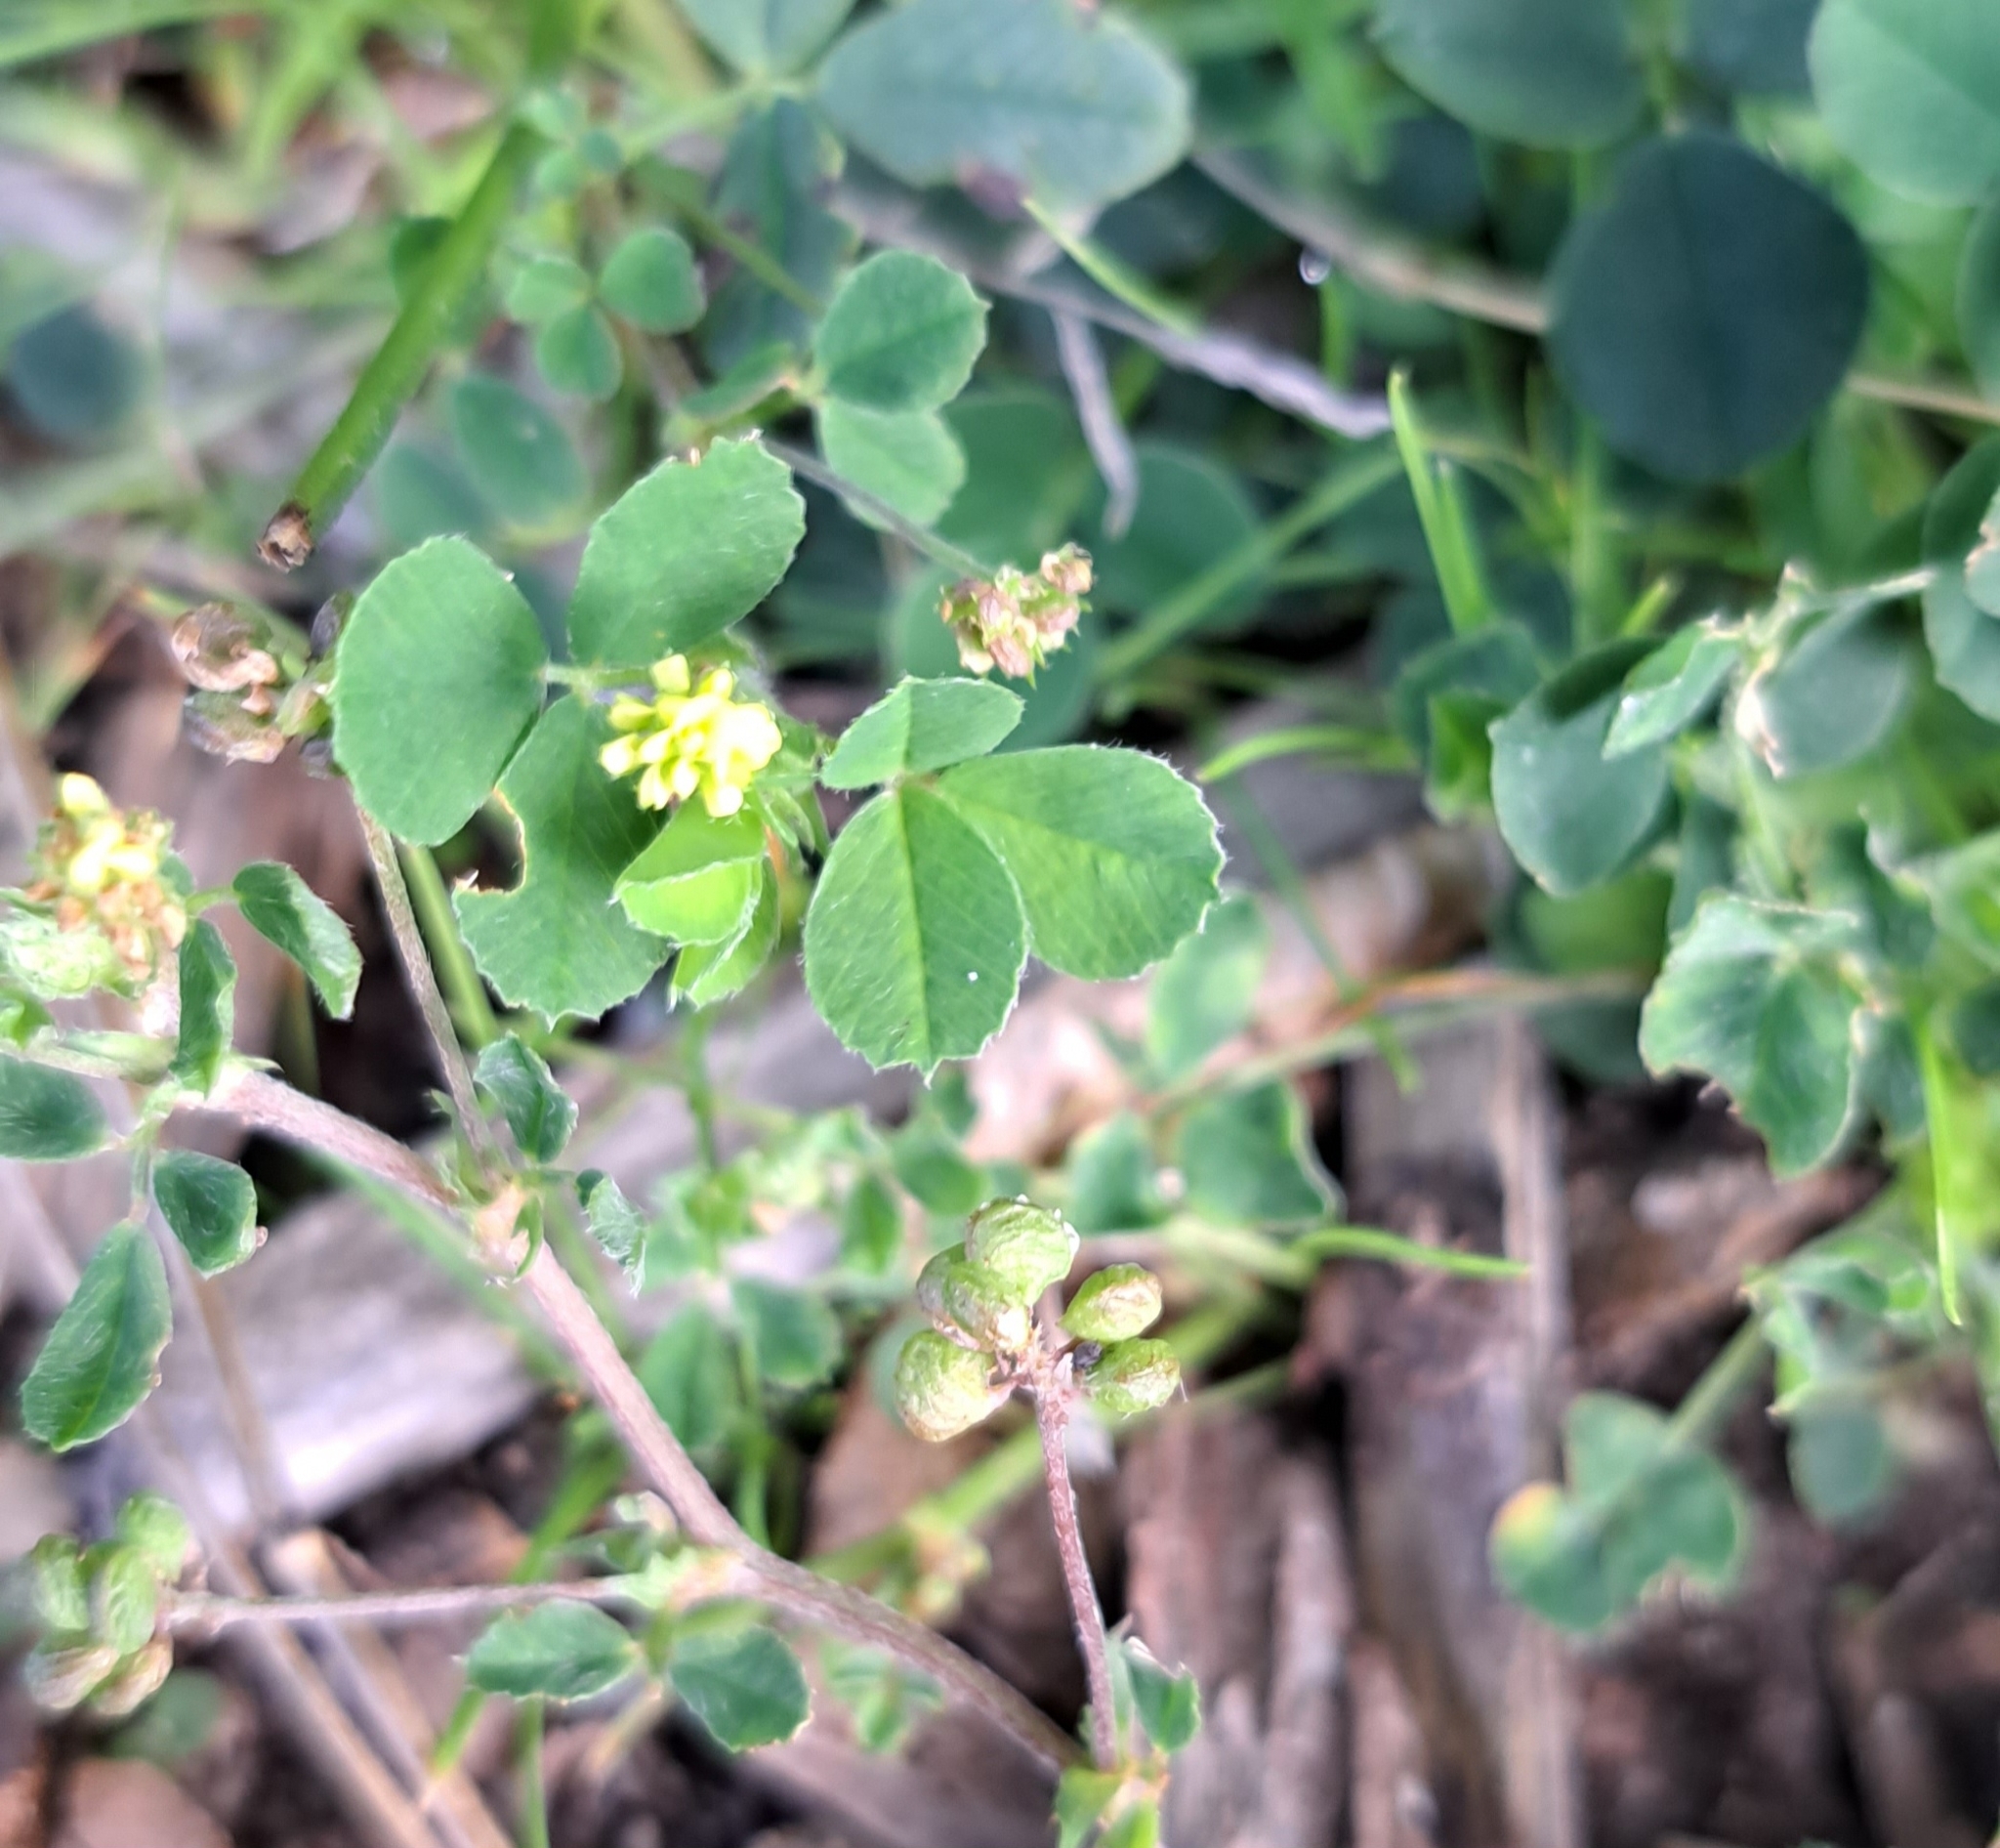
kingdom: Plantae
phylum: Tracheophyta
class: Magnoliopsida
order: Fabales
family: Fabaceae
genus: Medicago
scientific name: Medicago lupulina
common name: Black medick
